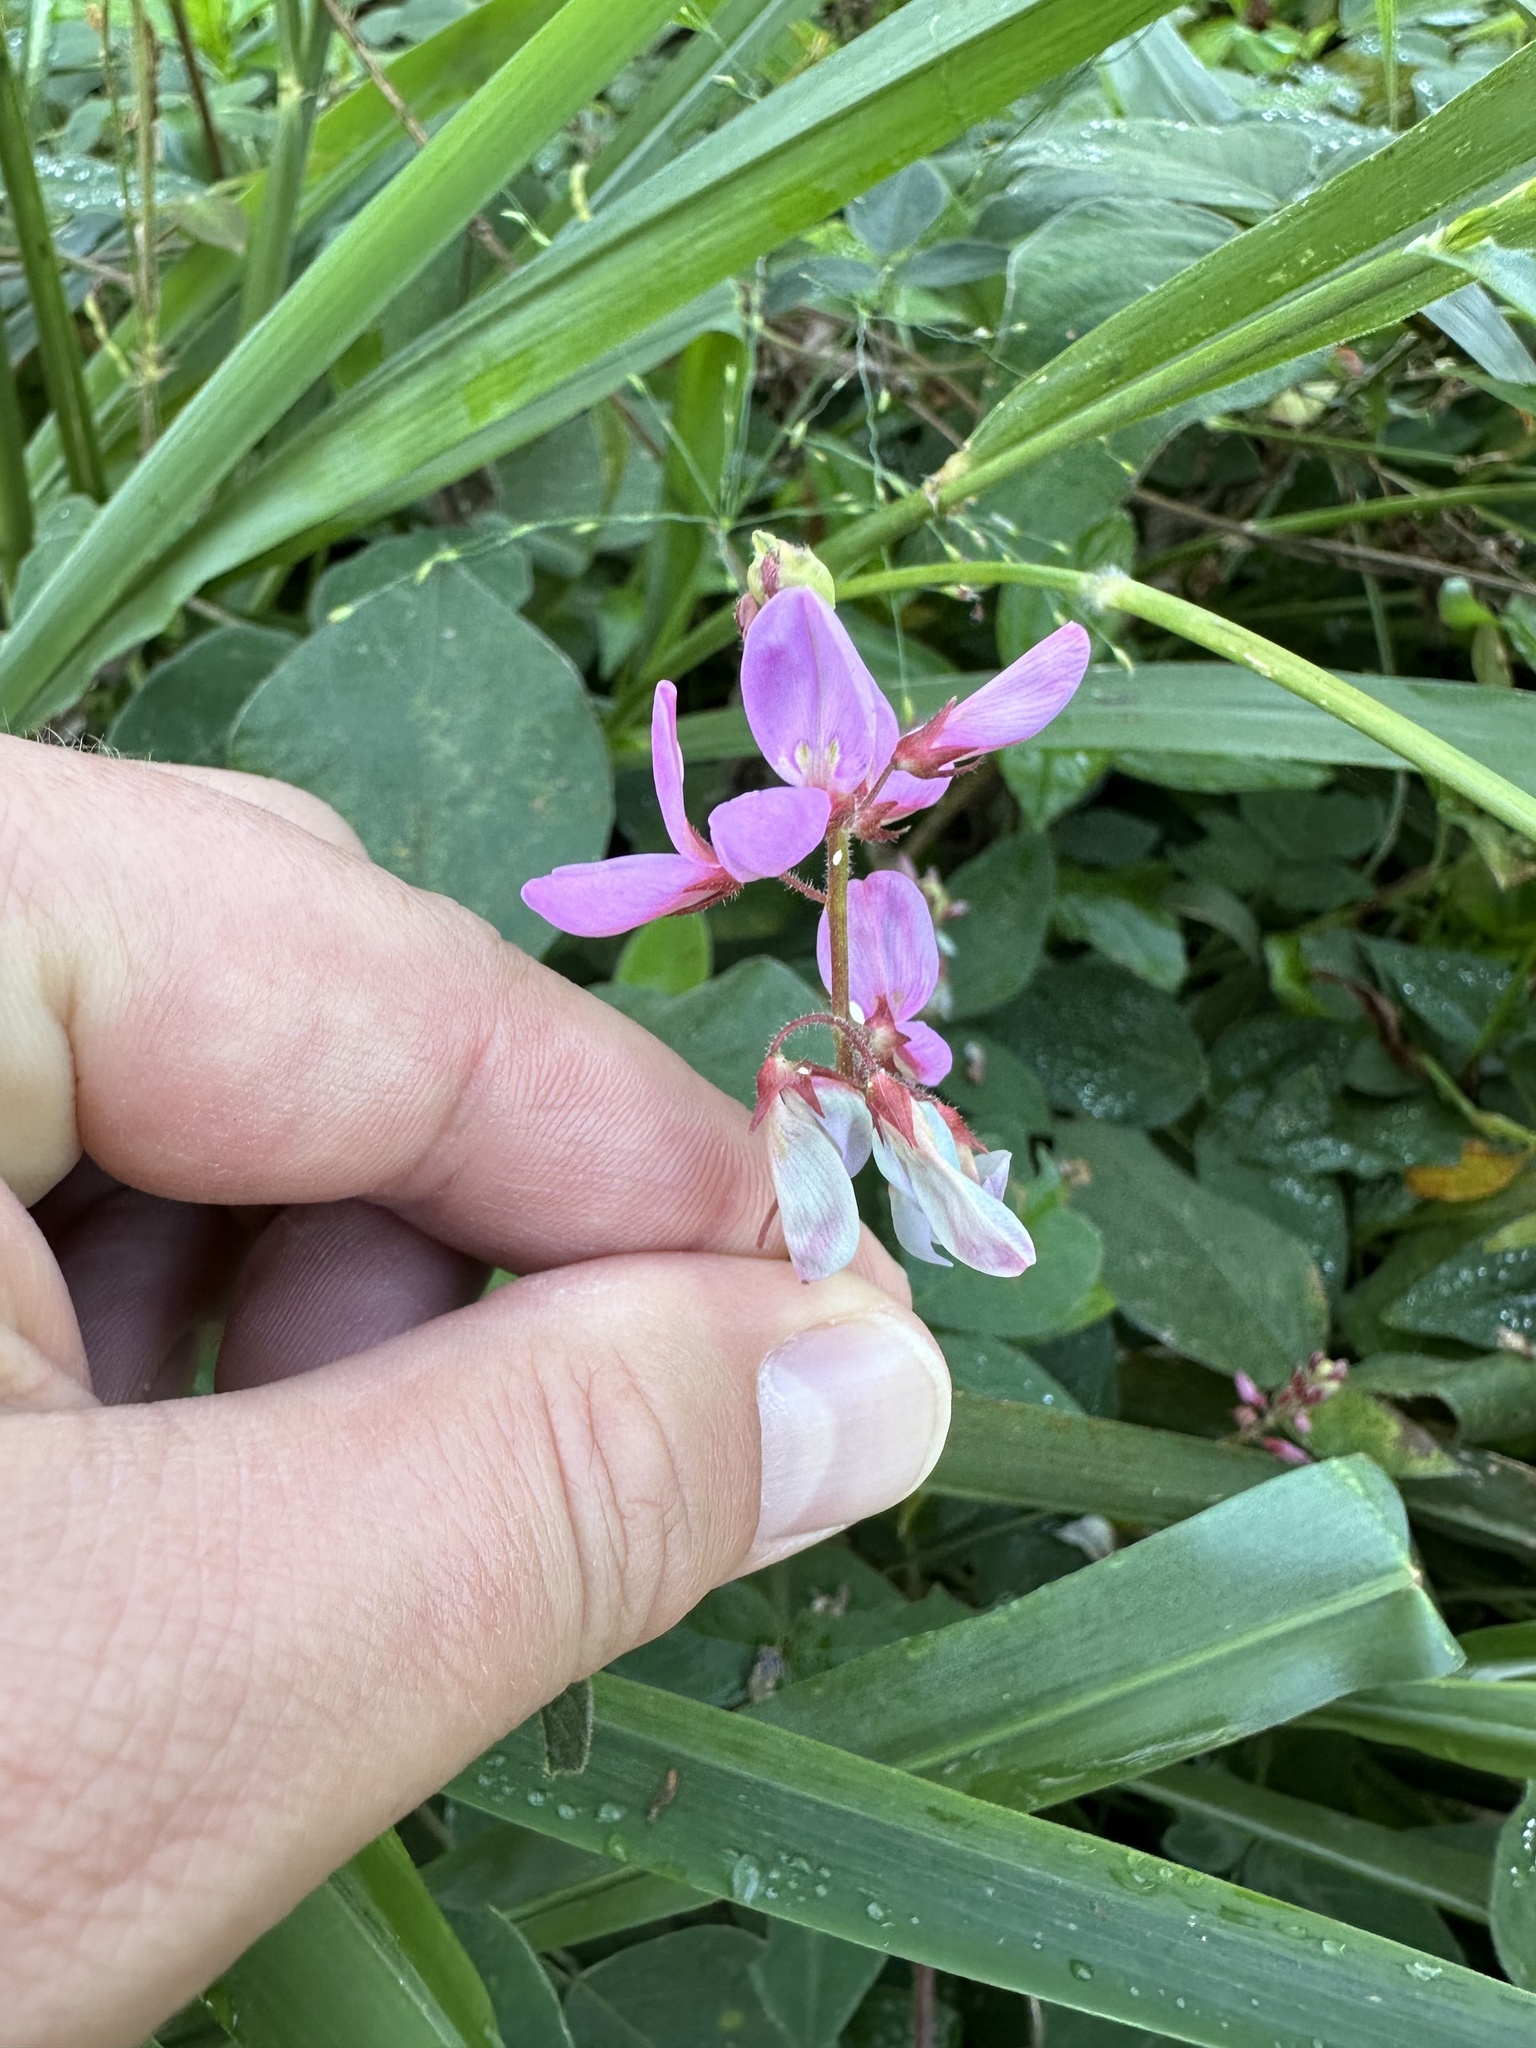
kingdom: Plantae
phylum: Tracheophyta
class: Magnoliopsida
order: Fabales
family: Fabaceae
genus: Desmodium
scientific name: Desmodium intortum
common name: Greenleaf ticktrefoil
